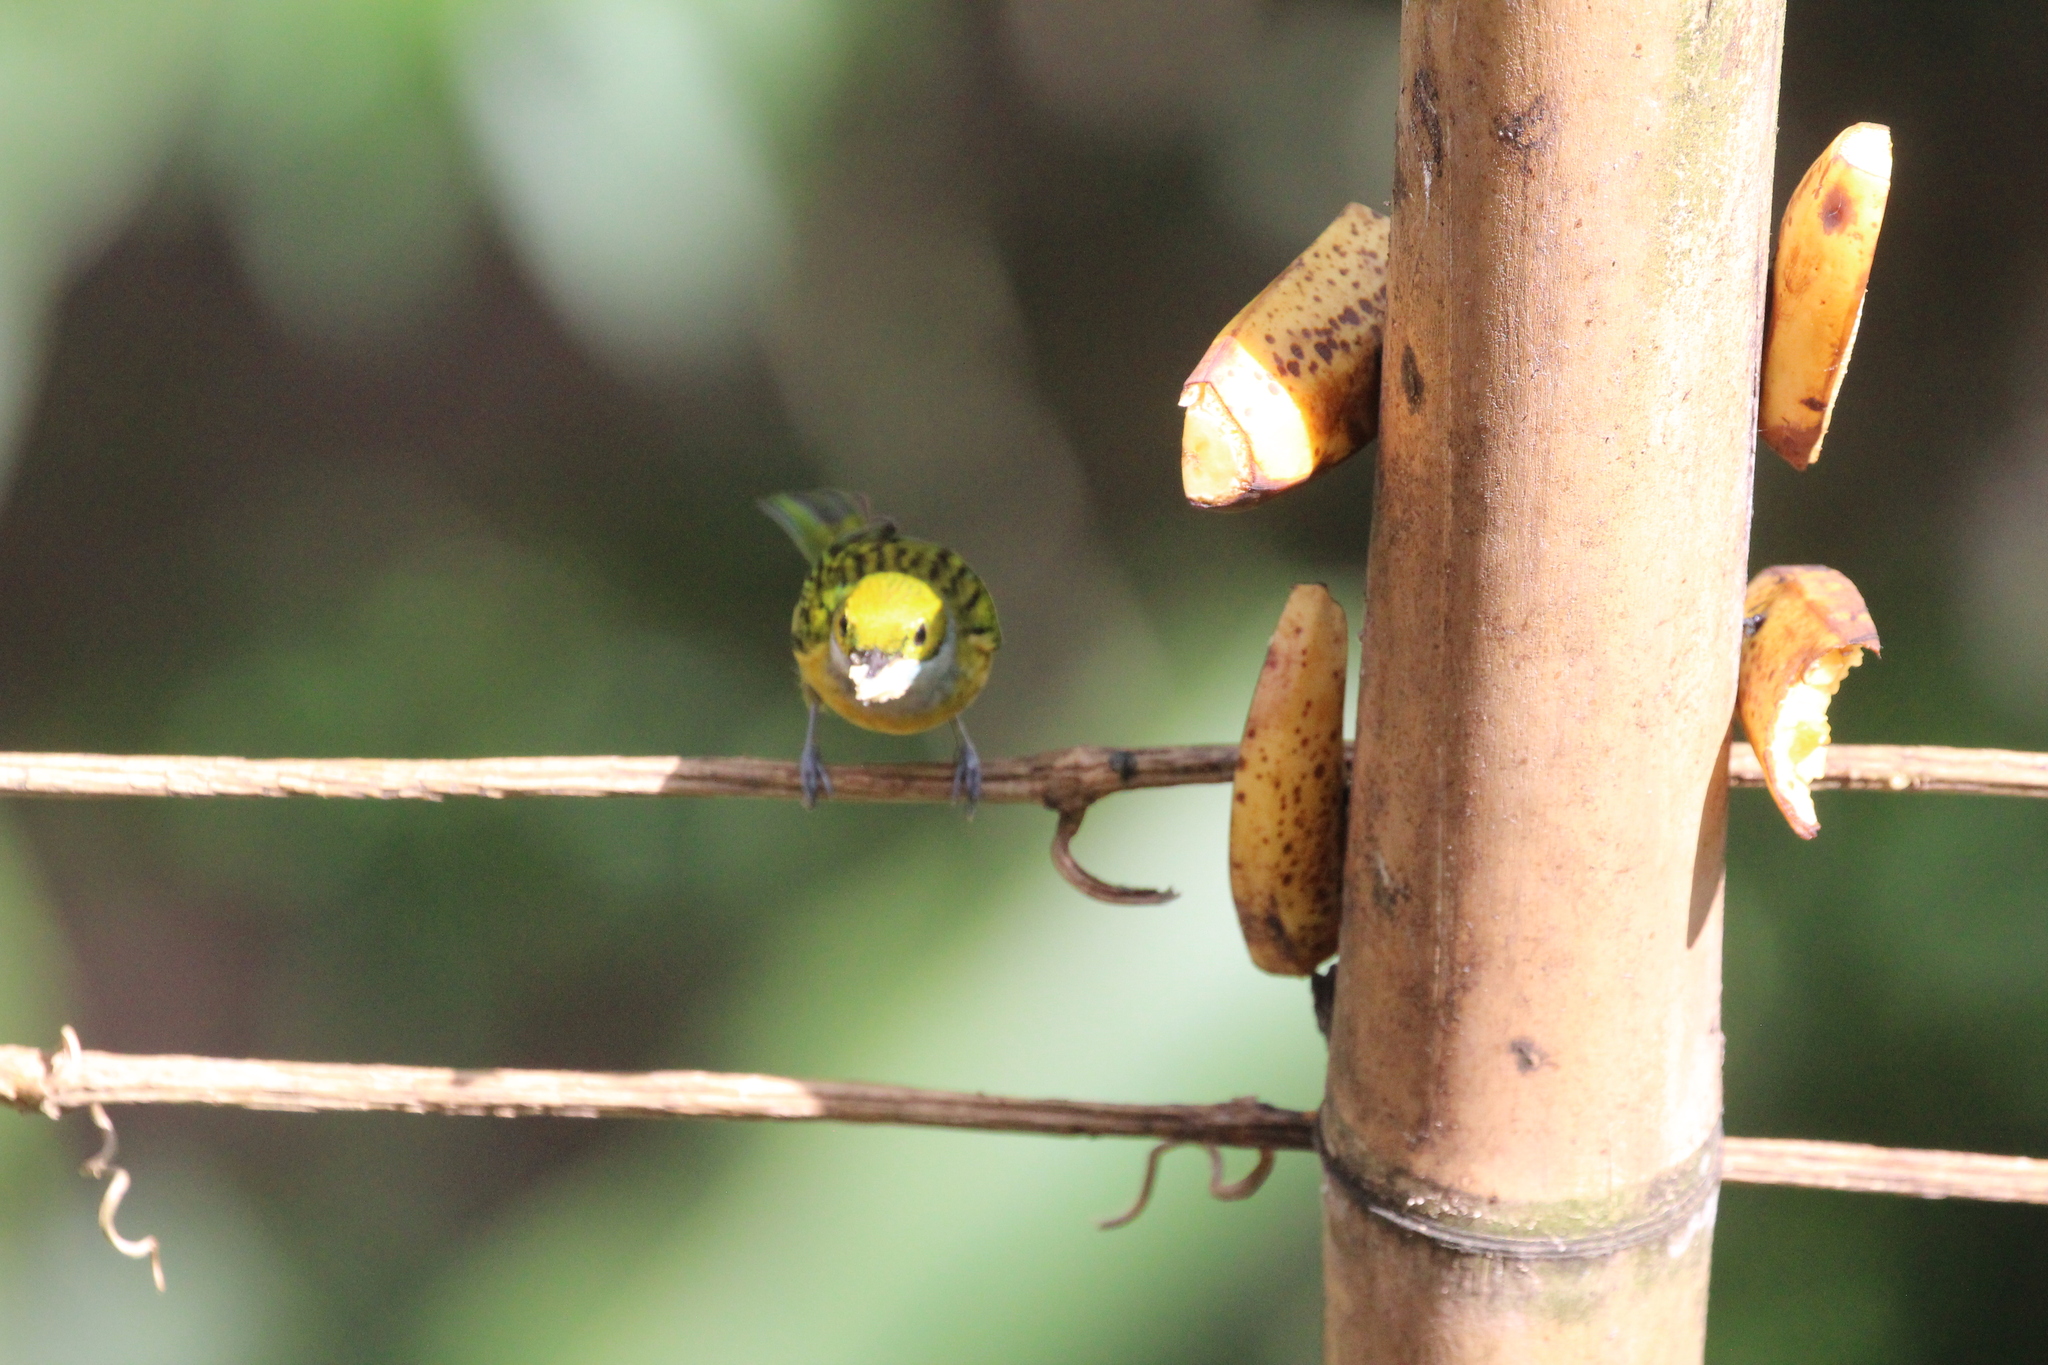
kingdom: Animalia
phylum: Chordata
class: Aves
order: Passeriformes
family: Thraupidae
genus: Tangara
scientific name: Tangara icterocephala
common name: Silver-throated tanager
